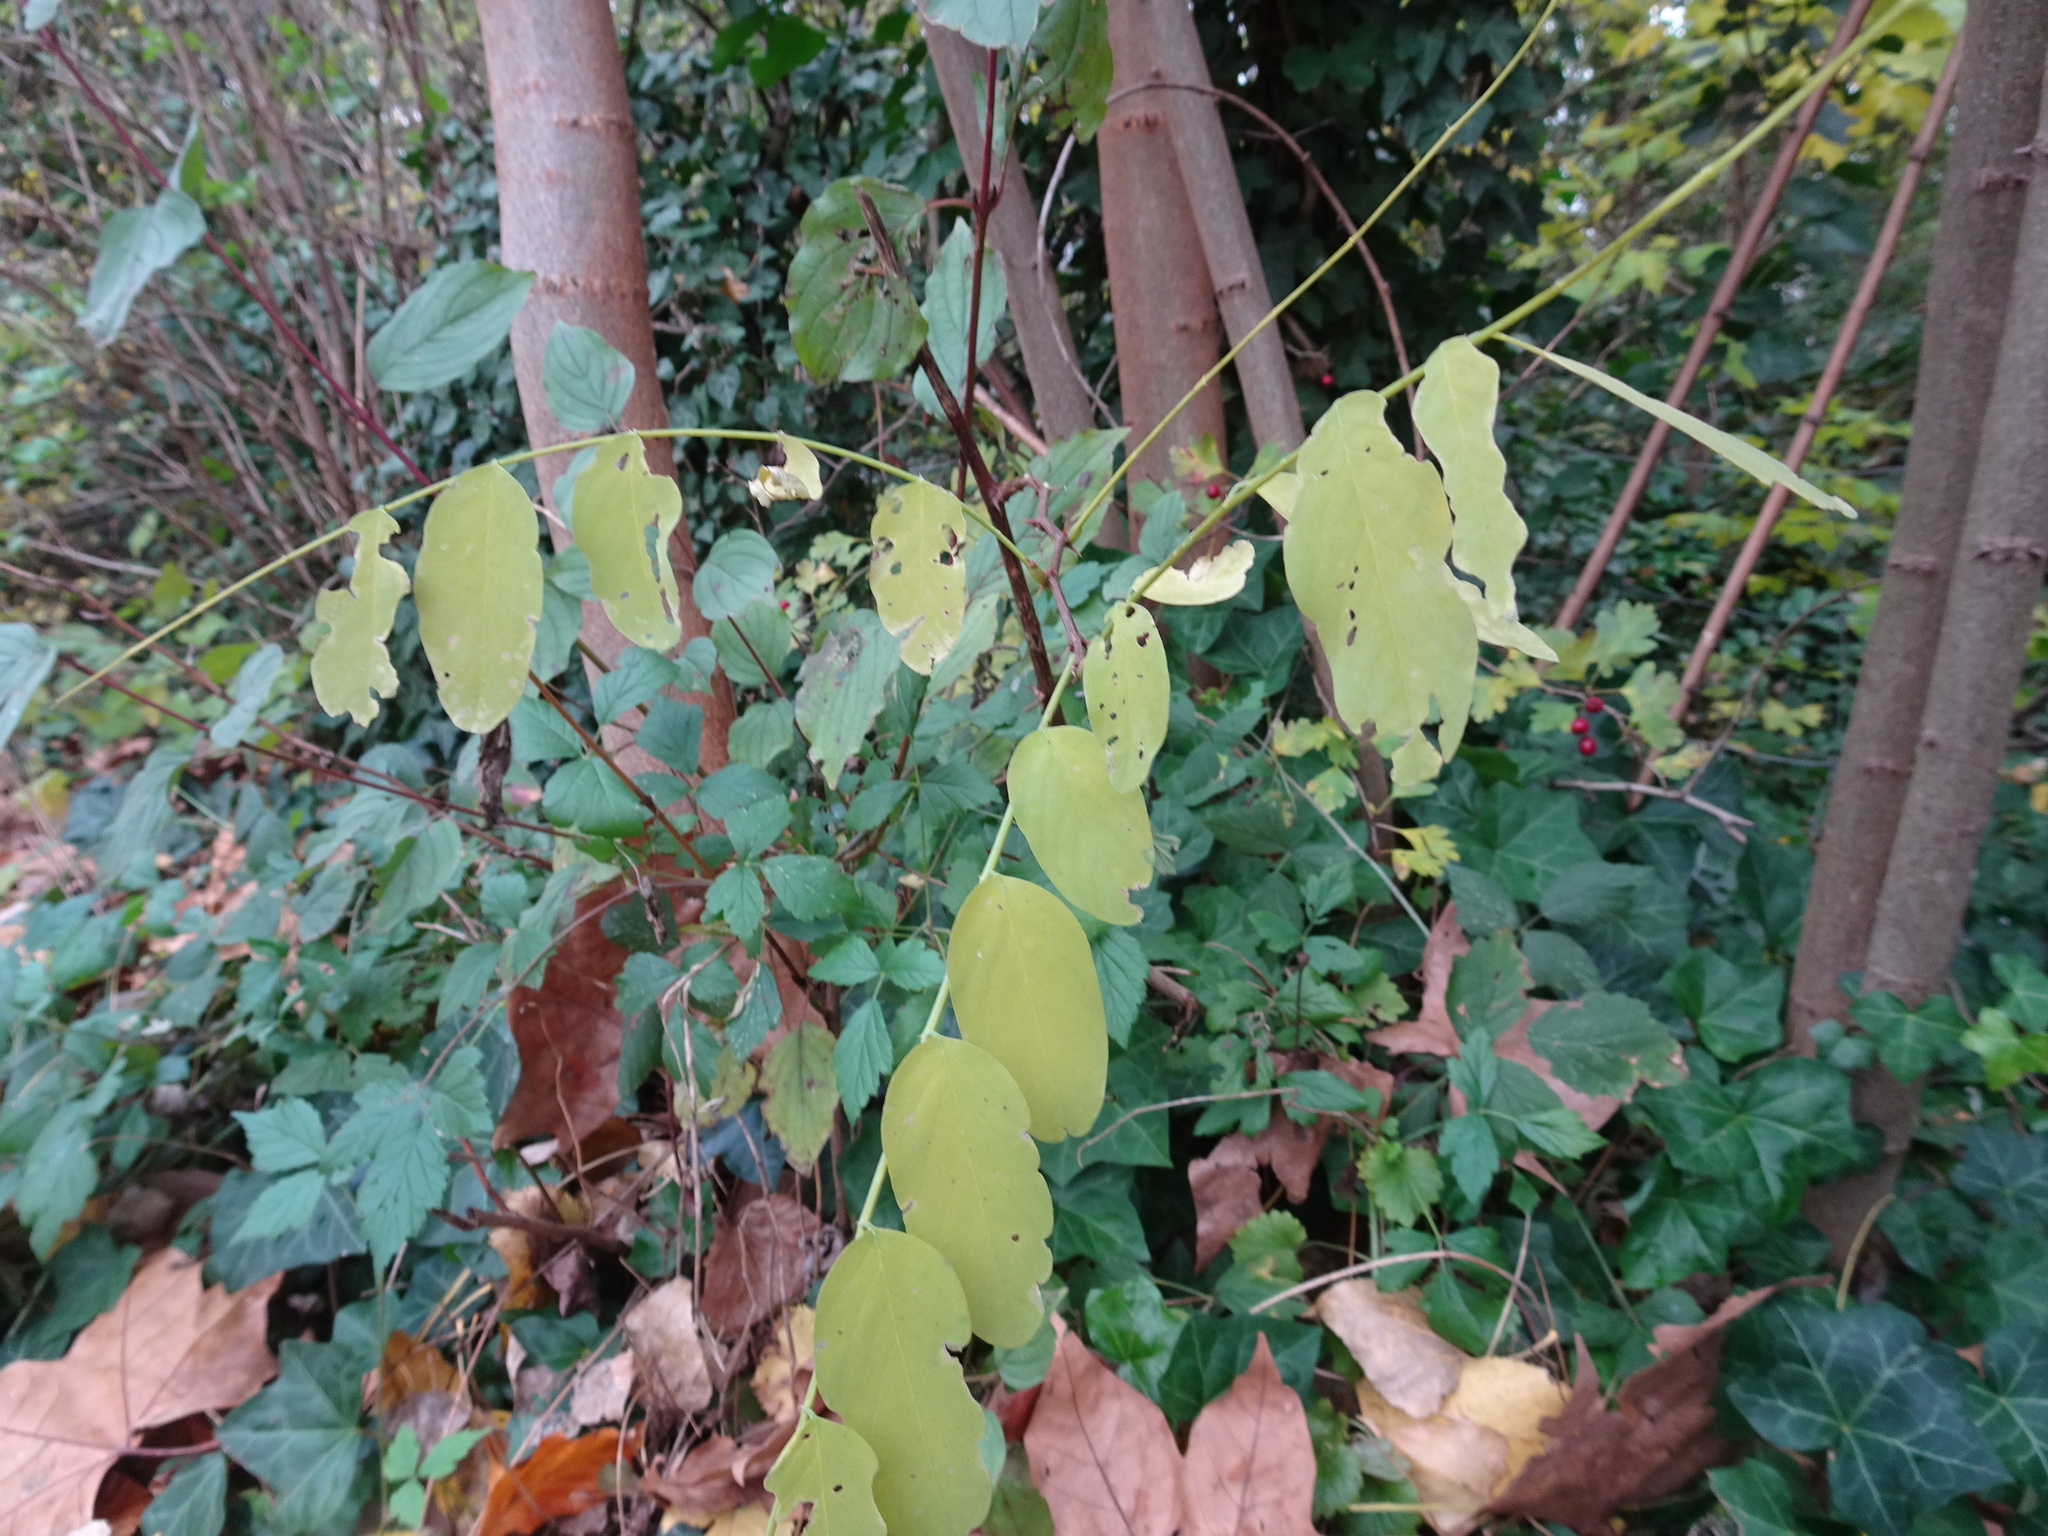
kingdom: Plantae
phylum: Tracheophyta
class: Magnoliopsida
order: Fabales
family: Fabaceae
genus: Robinia
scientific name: Robinia pseudoacacia
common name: Black locust
